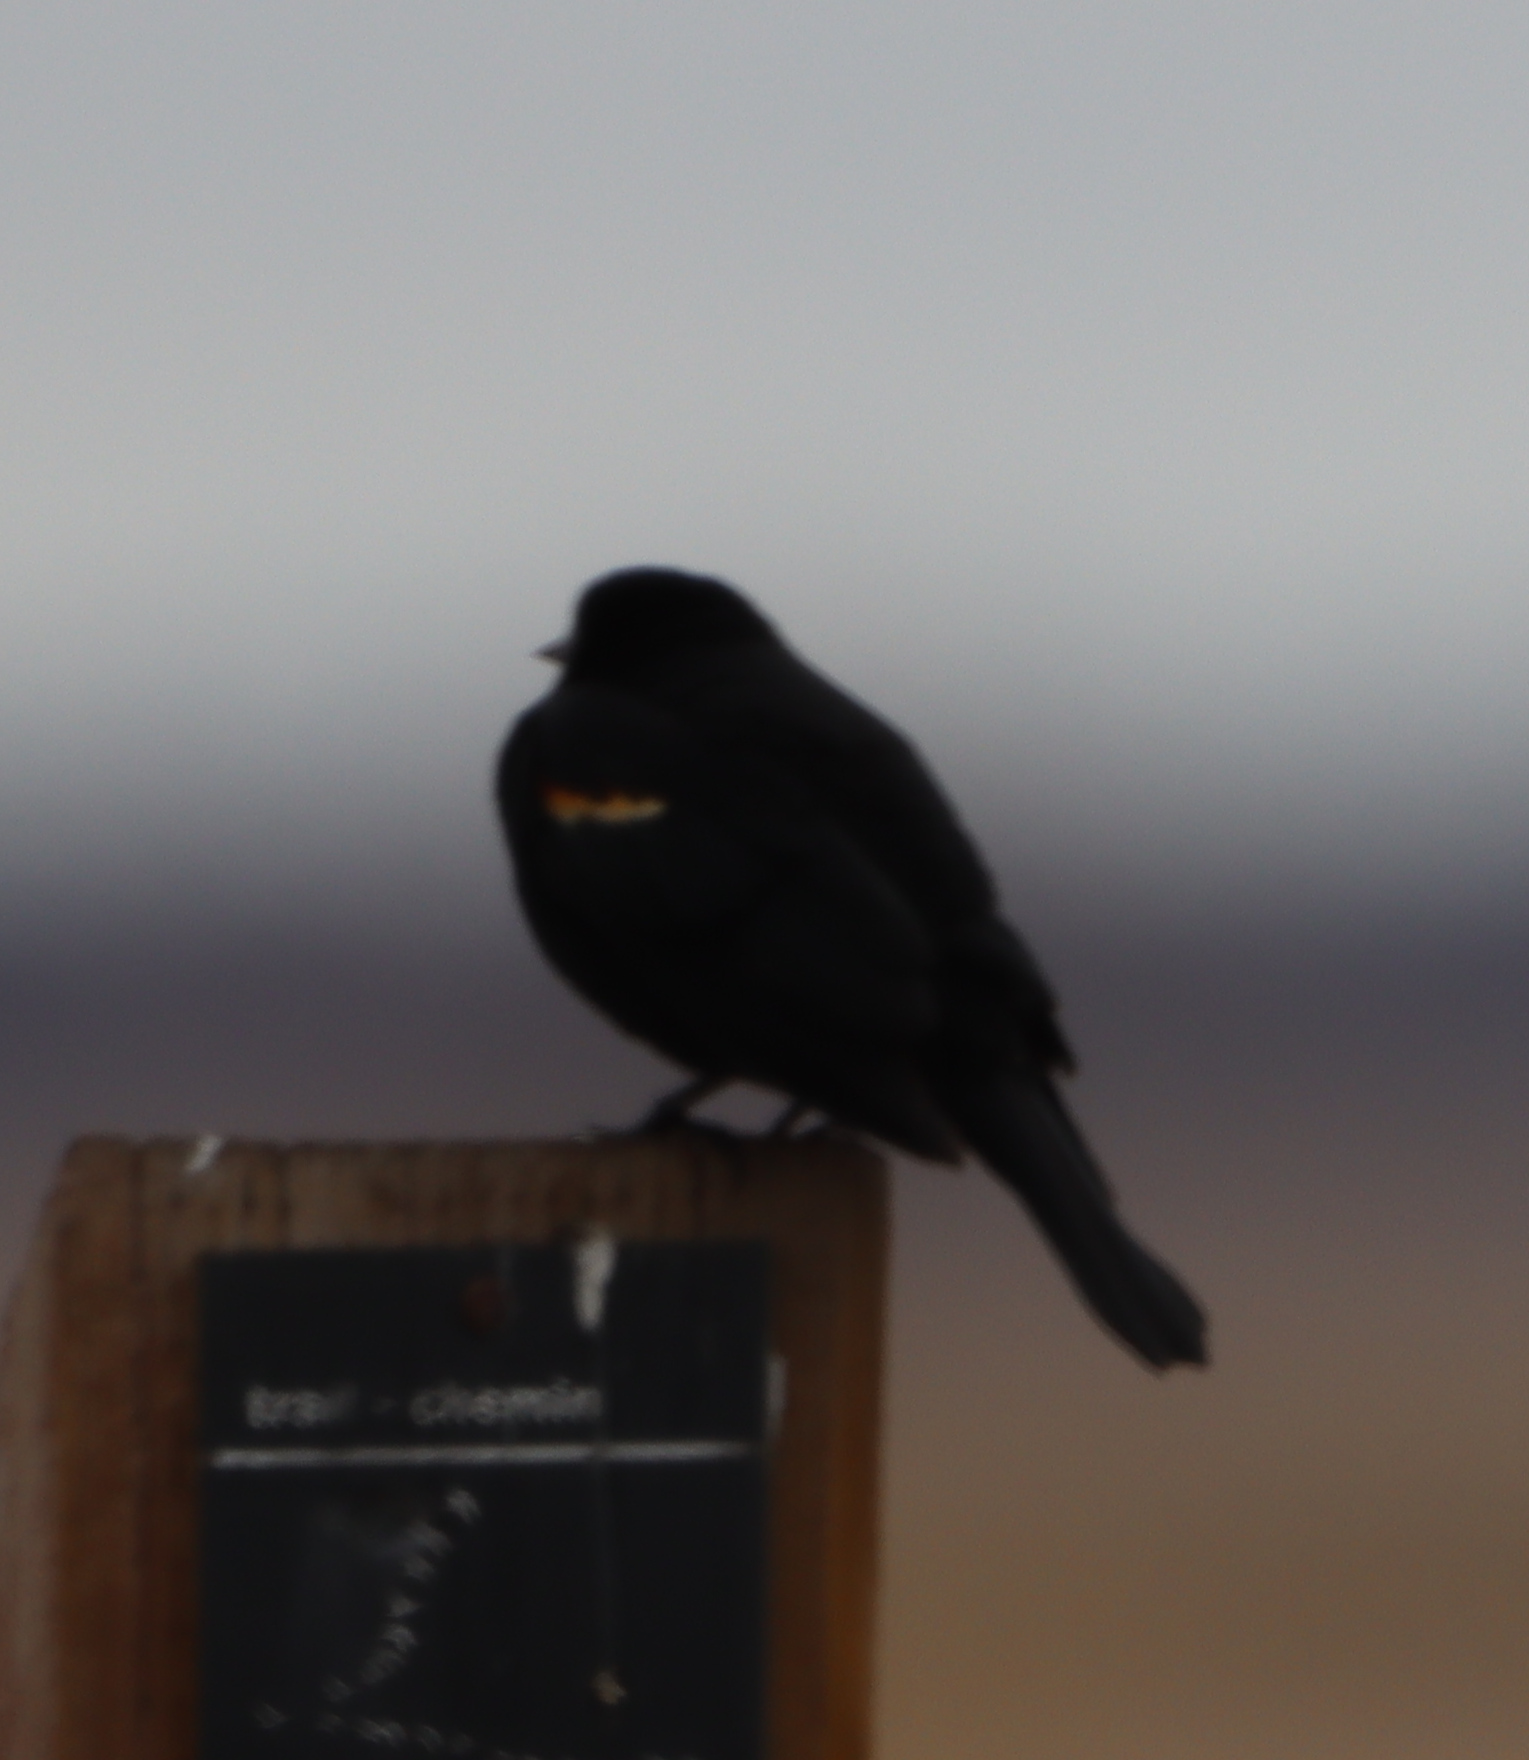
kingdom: Animalia
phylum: Chordata
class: Aves
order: Passeriformes
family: Icteridae
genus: Agelaius
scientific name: Agelaius phoeniceus
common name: Red-winged blackbird
